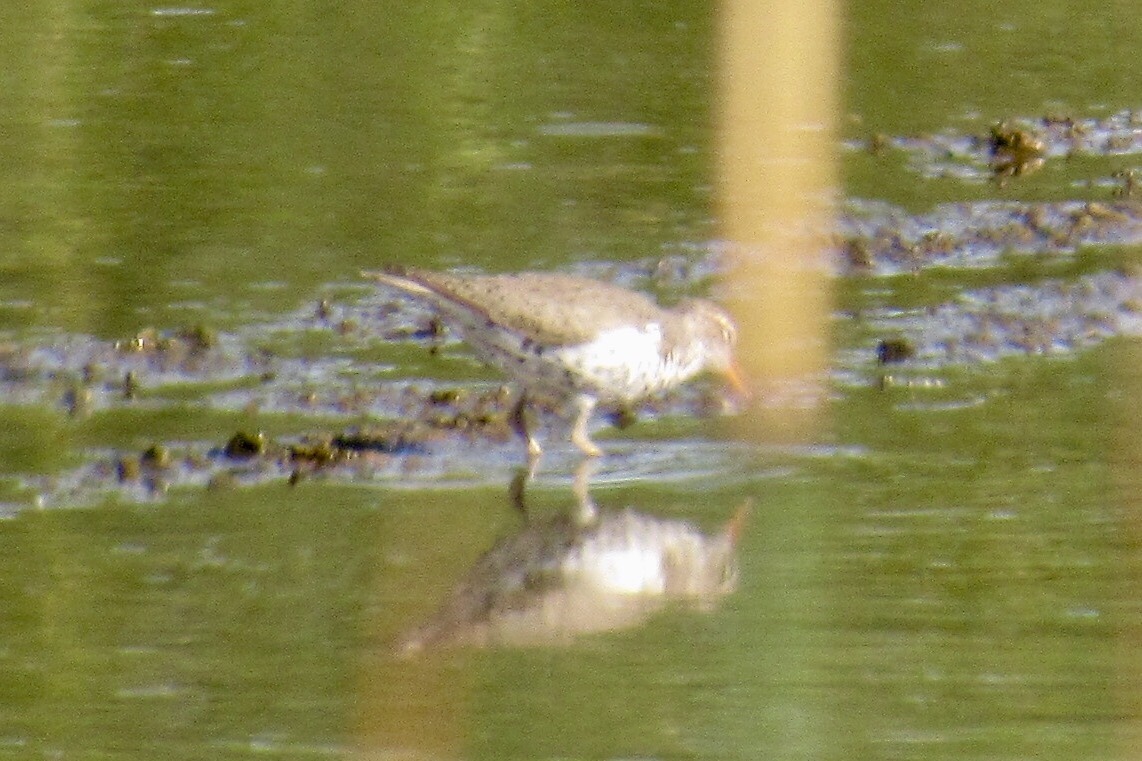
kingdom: Animalia
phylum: Chordata
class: Aves
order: Charadriiformes
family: Scolopacidae
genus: Actitis
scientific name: Actitis macularius
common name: Spotted sandpiper
